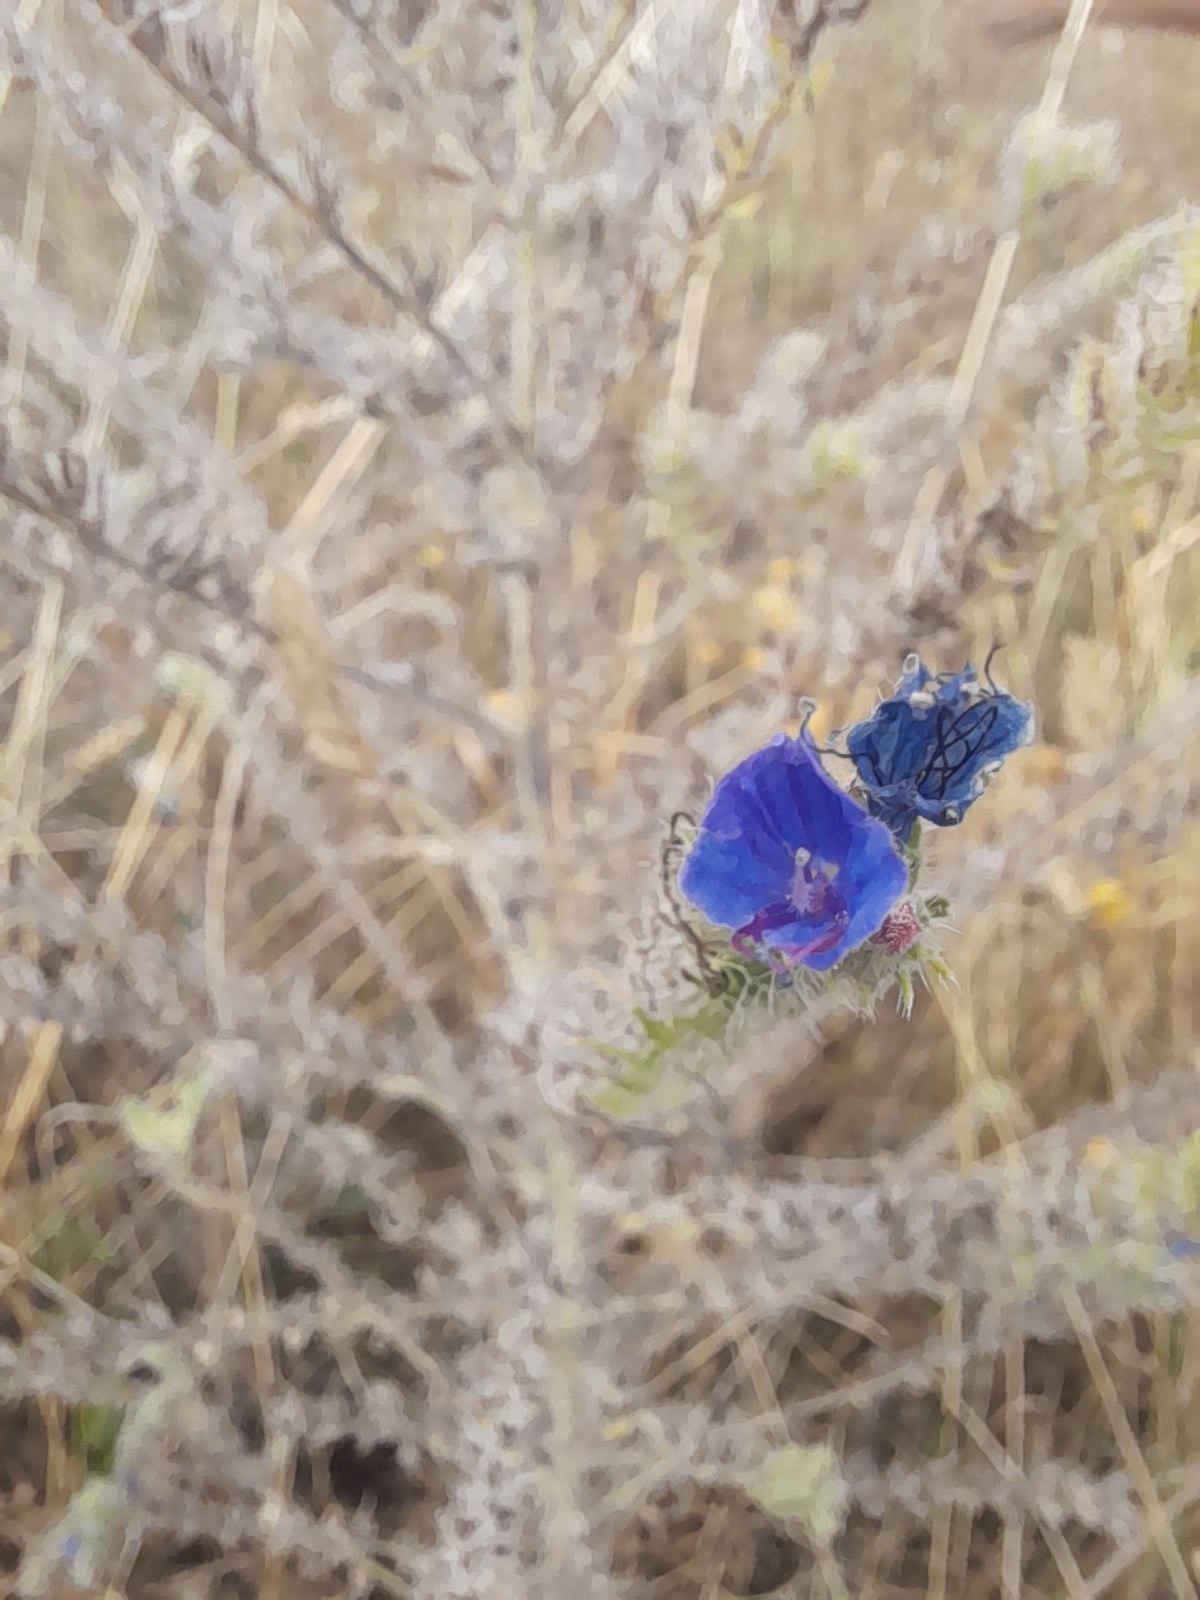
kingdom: Plantae
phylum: Tracheophyta
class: Magnoliopsida
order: Boraginales
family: Boraginaceae
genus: Echium
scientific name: Echium vulgare
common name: Common viper's bugloss
